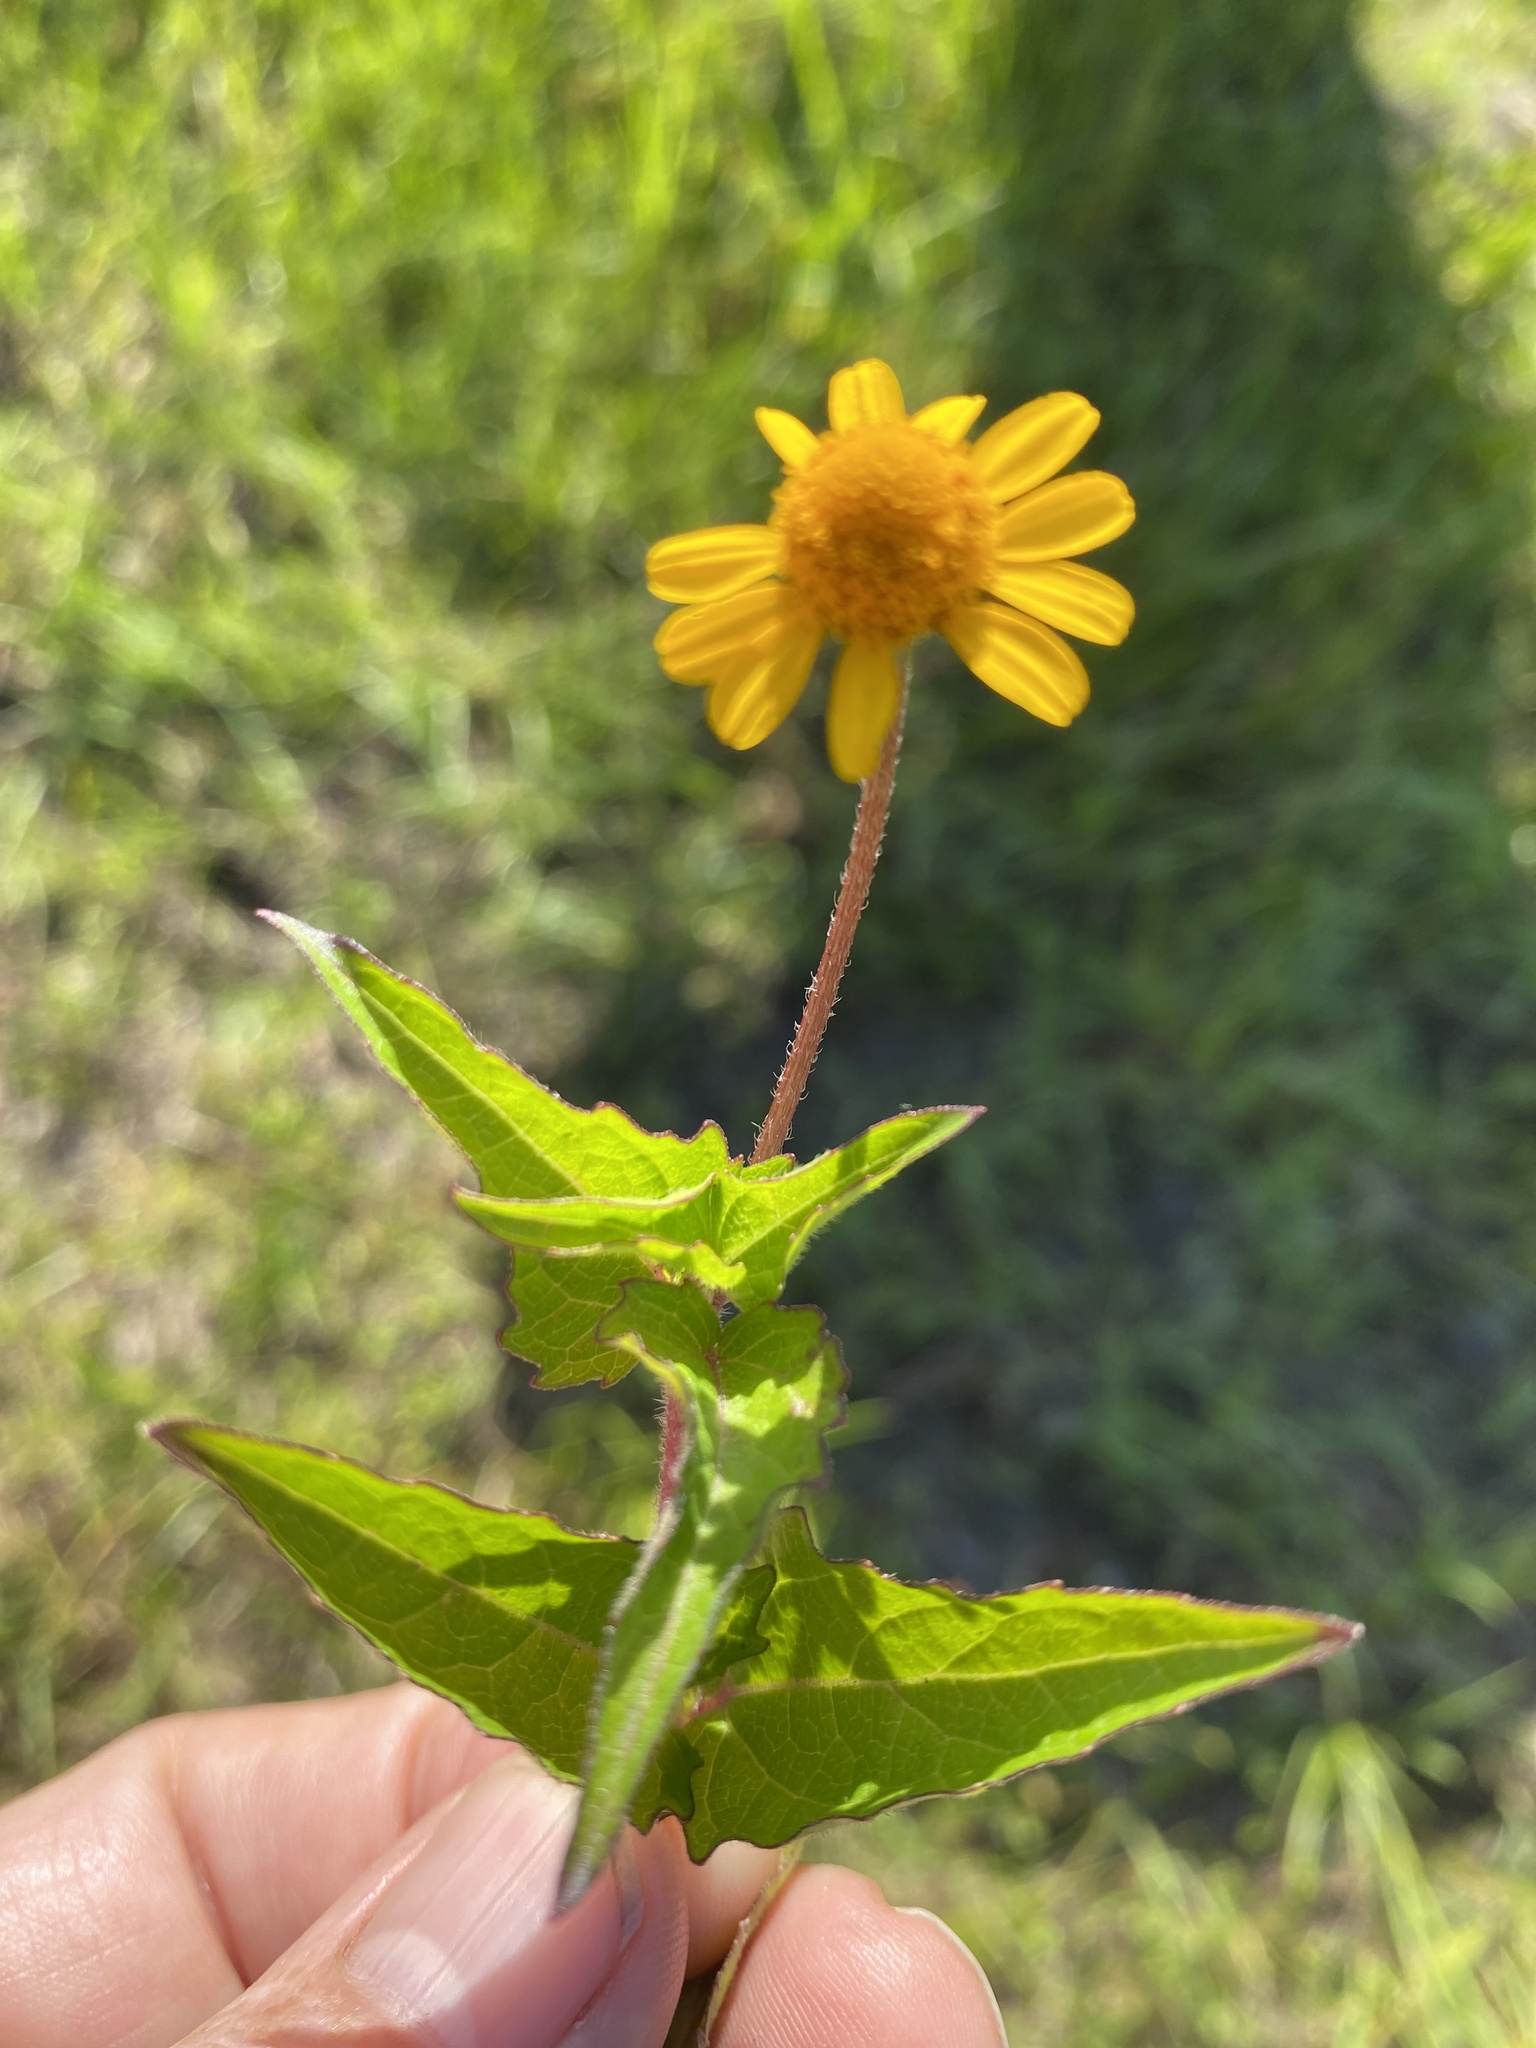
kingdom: Plantae
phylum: Tracheophyta
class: Magnoliopsida
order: Asterales
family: Asteraceae
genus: Acmella
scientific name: Acmella repens
